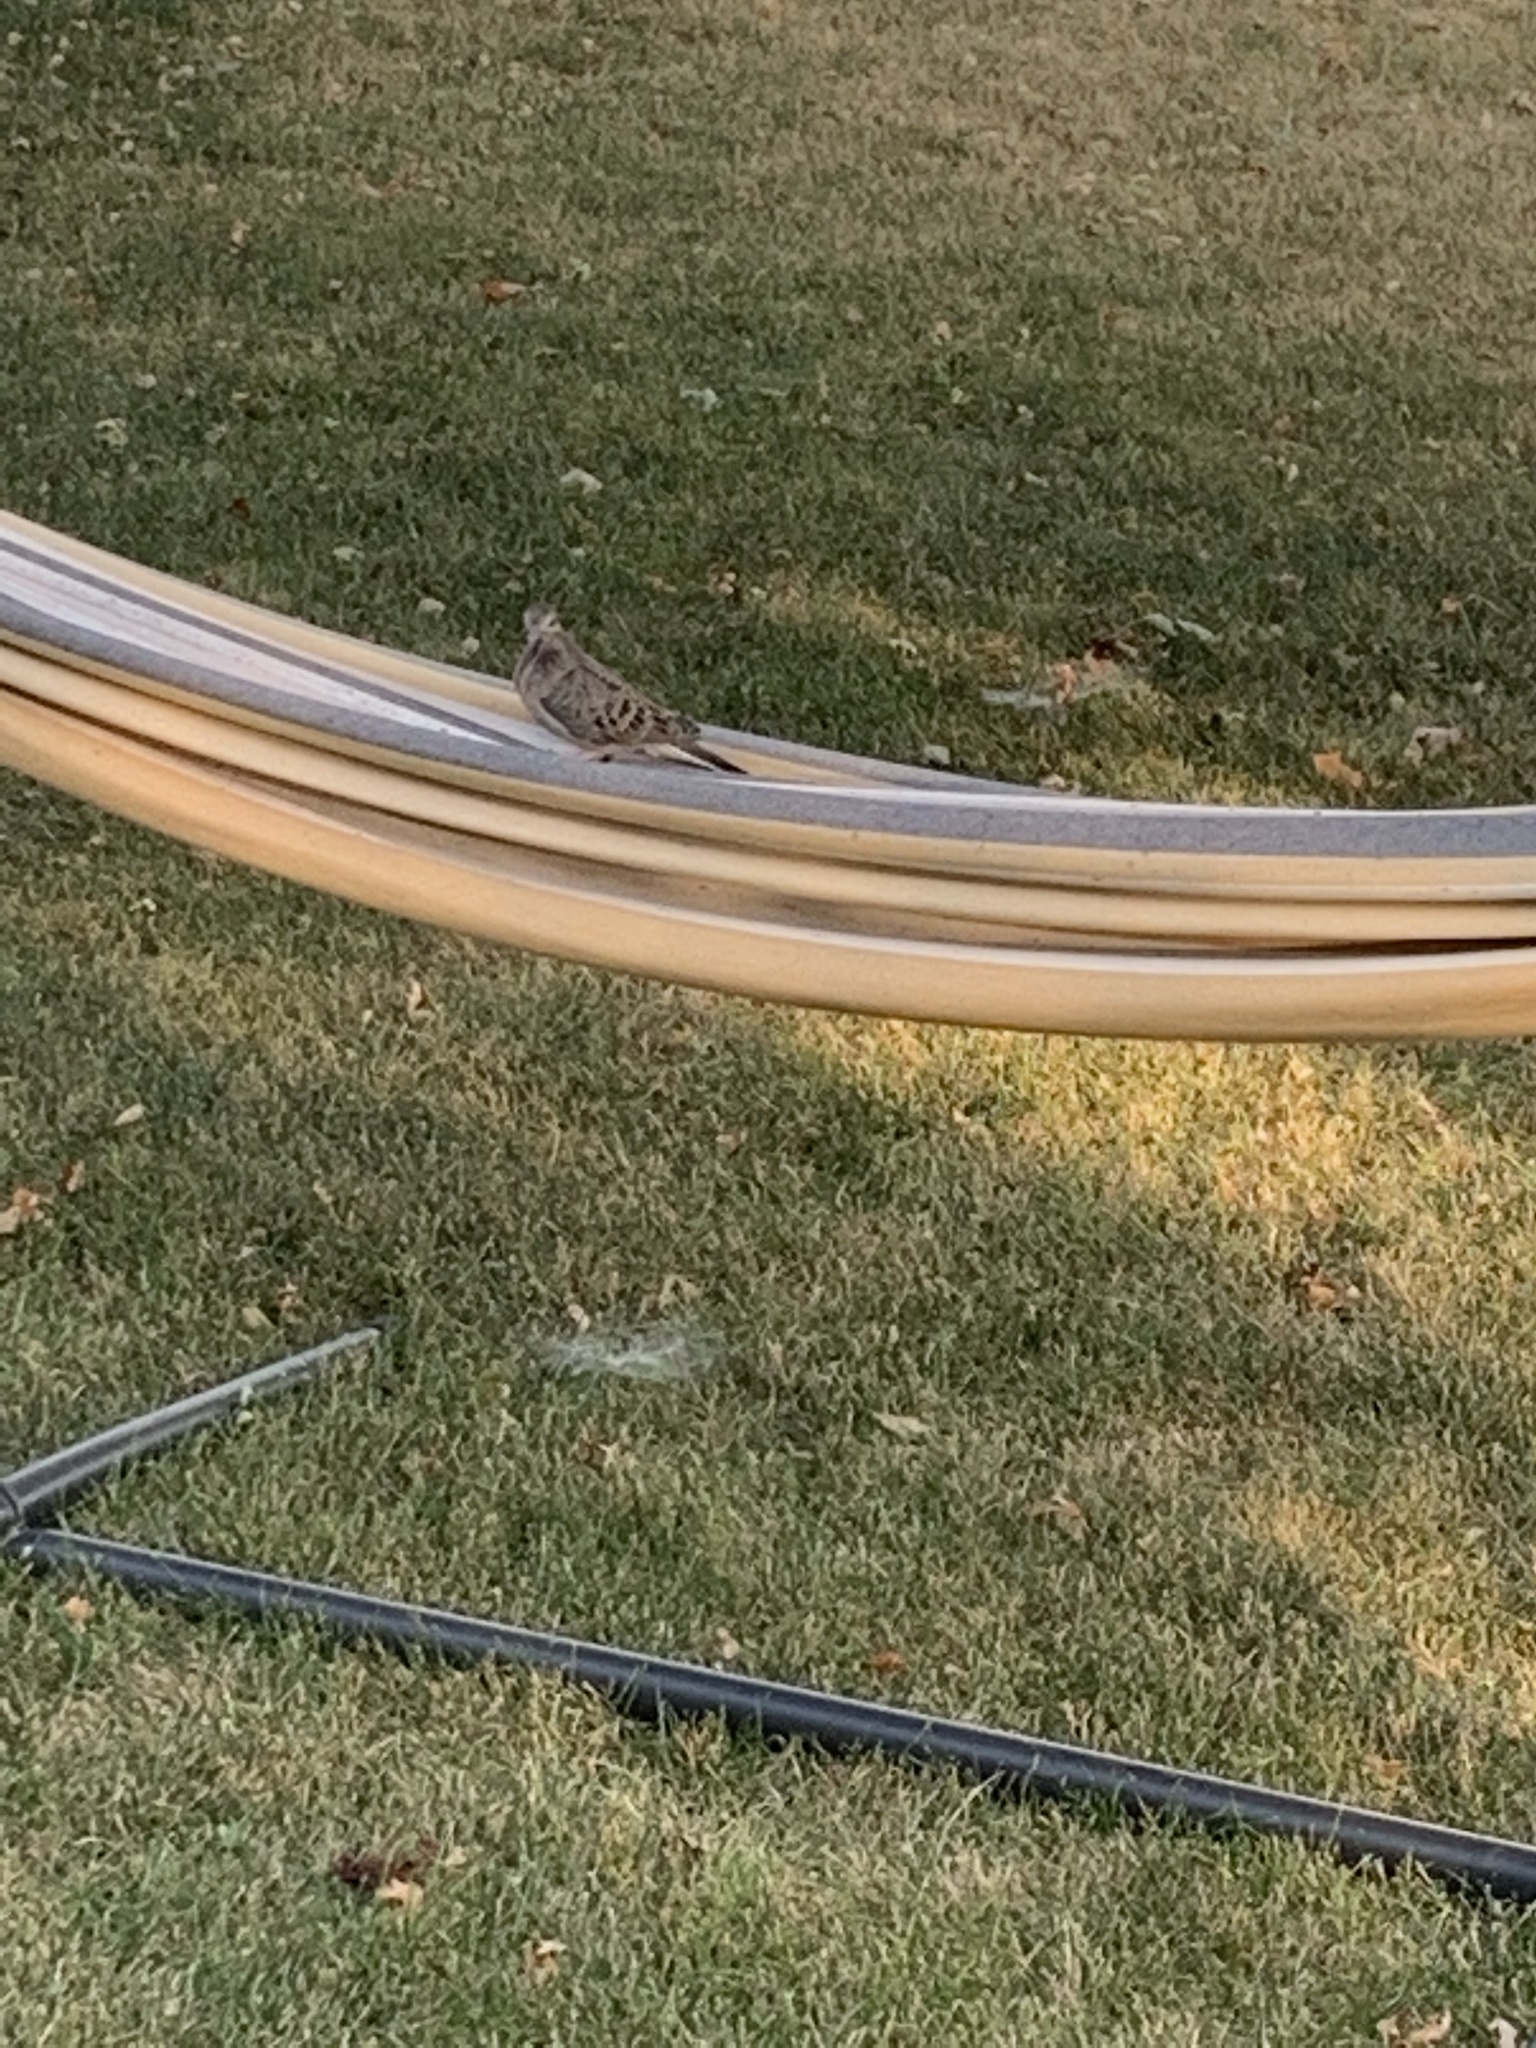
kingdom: Animalia
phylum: Chordata
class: Aves
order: Columbiformes
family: Columbidae
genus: Zenaida
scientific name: Zenaida macroura
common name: Mourning dove
